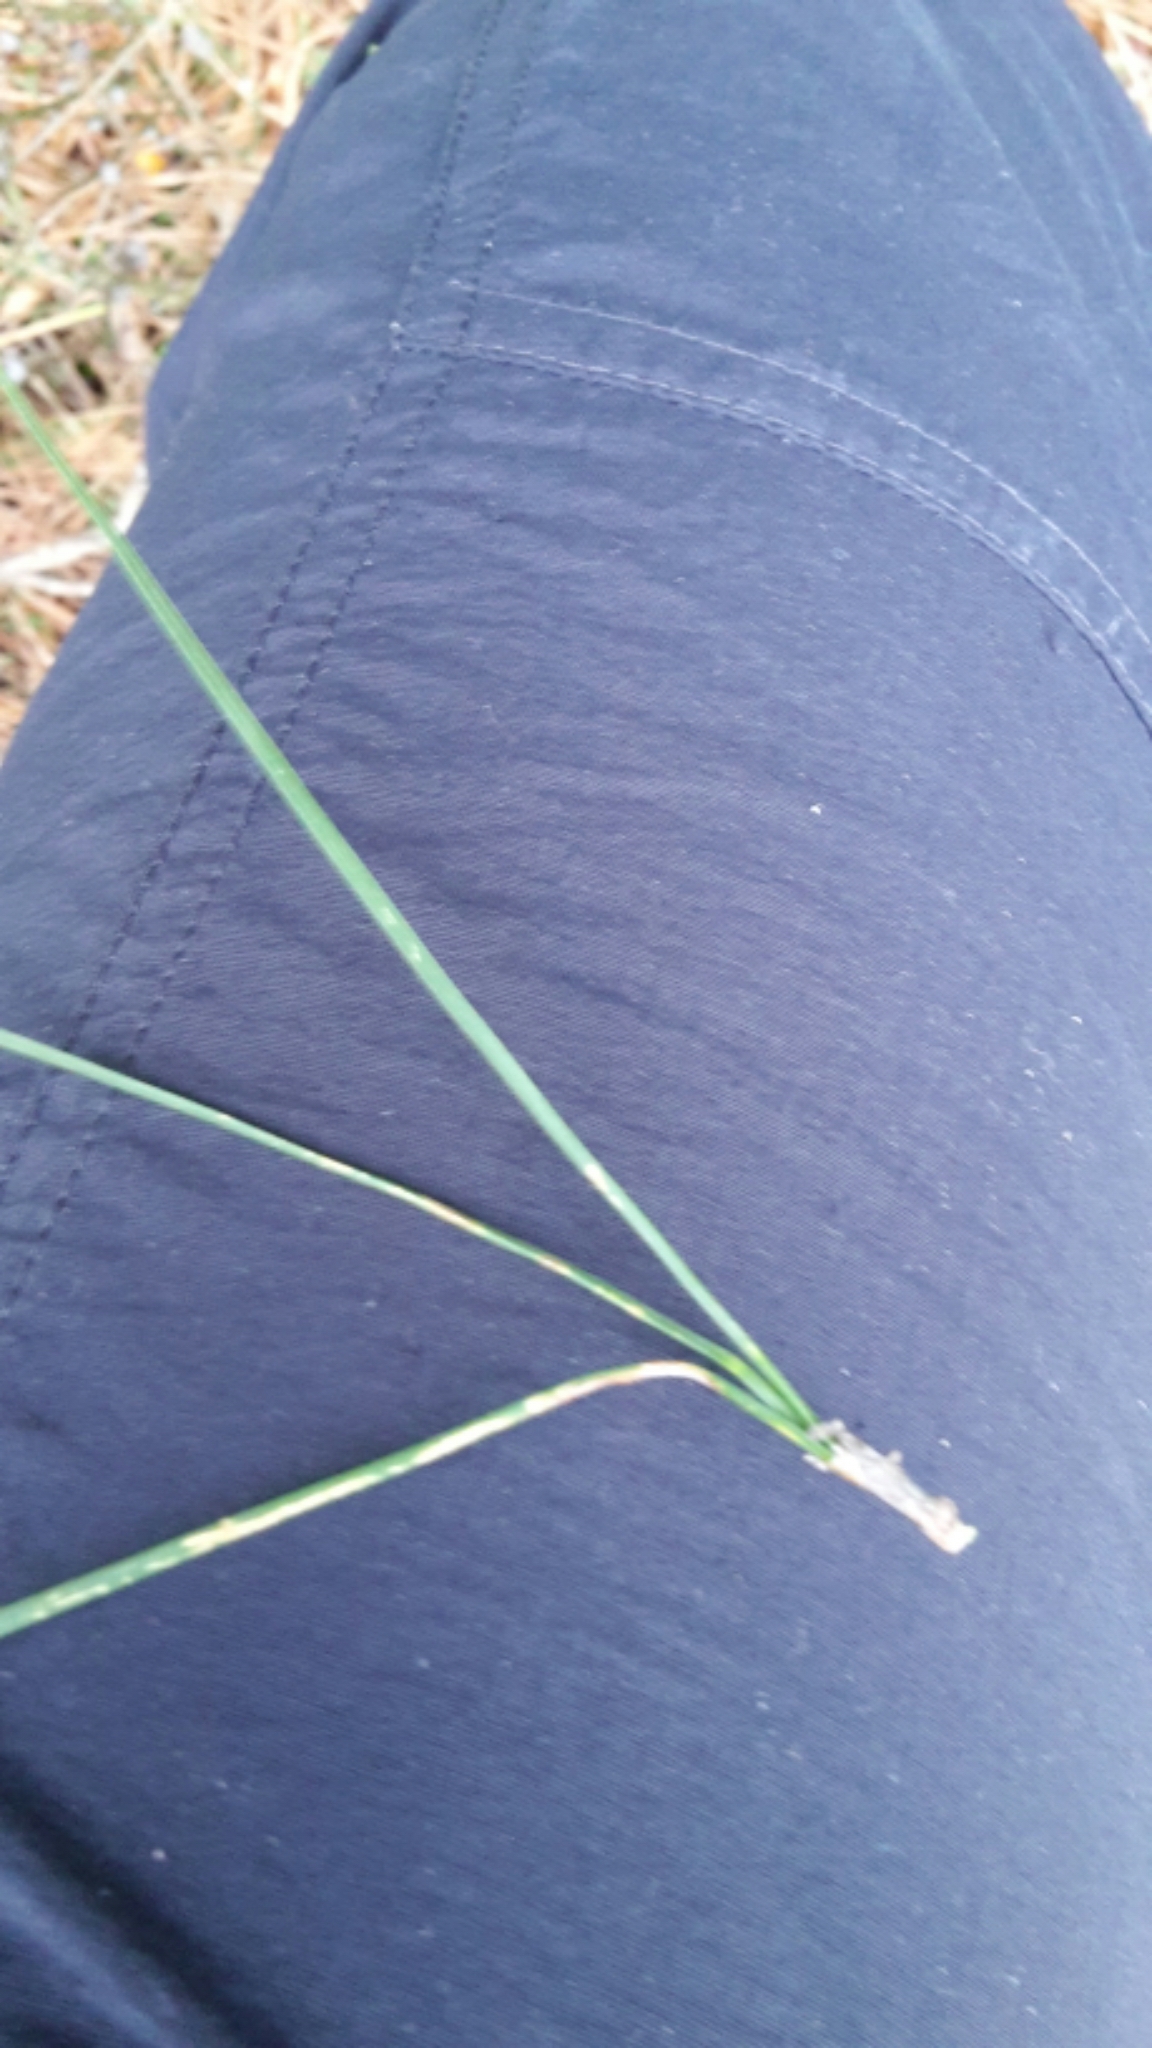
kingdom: Plantae
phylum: Tracheophyta
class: Pinopsida
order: Pinales
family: Pinaceae
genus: Pinus
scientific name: Pinus radiata
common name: Monterey pine
